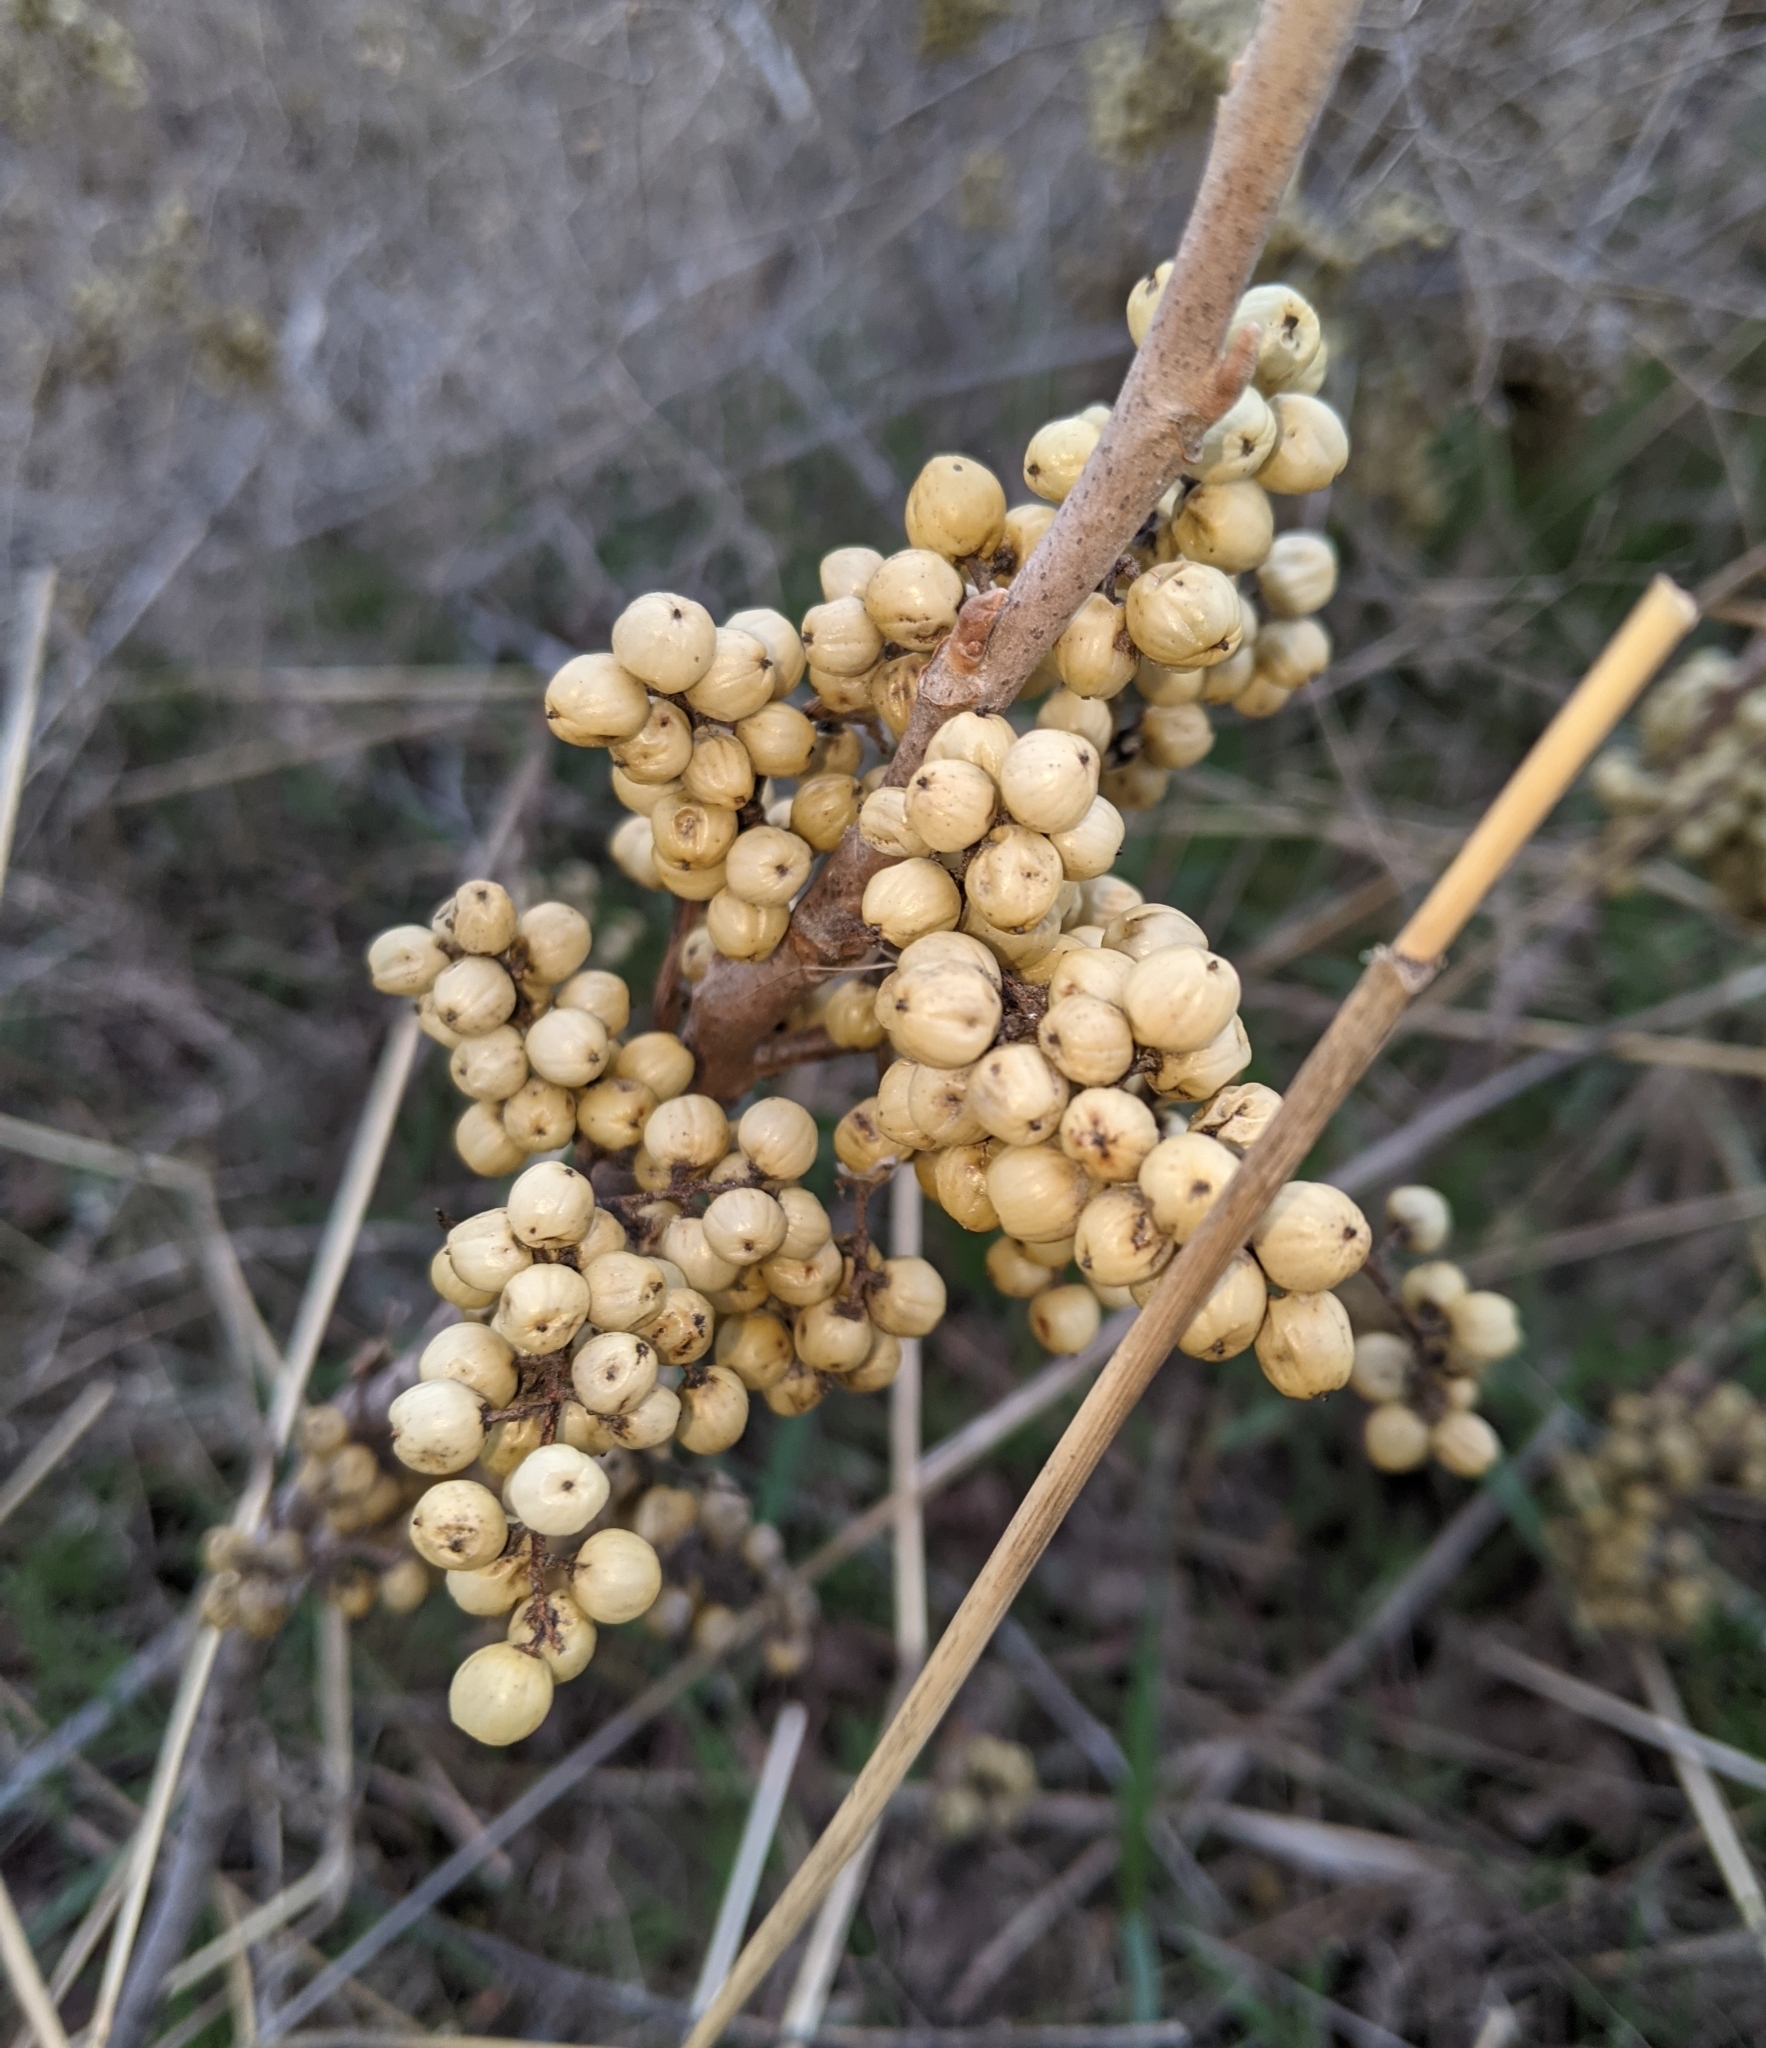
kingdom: Plantae
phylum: Tracheophyta
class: Magnoliopsida
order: Sapindales
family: Anacardiaceae
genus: Toxicodendron
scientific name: Toxicodendron rydbergii
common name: Rydberg's poison-ivy
